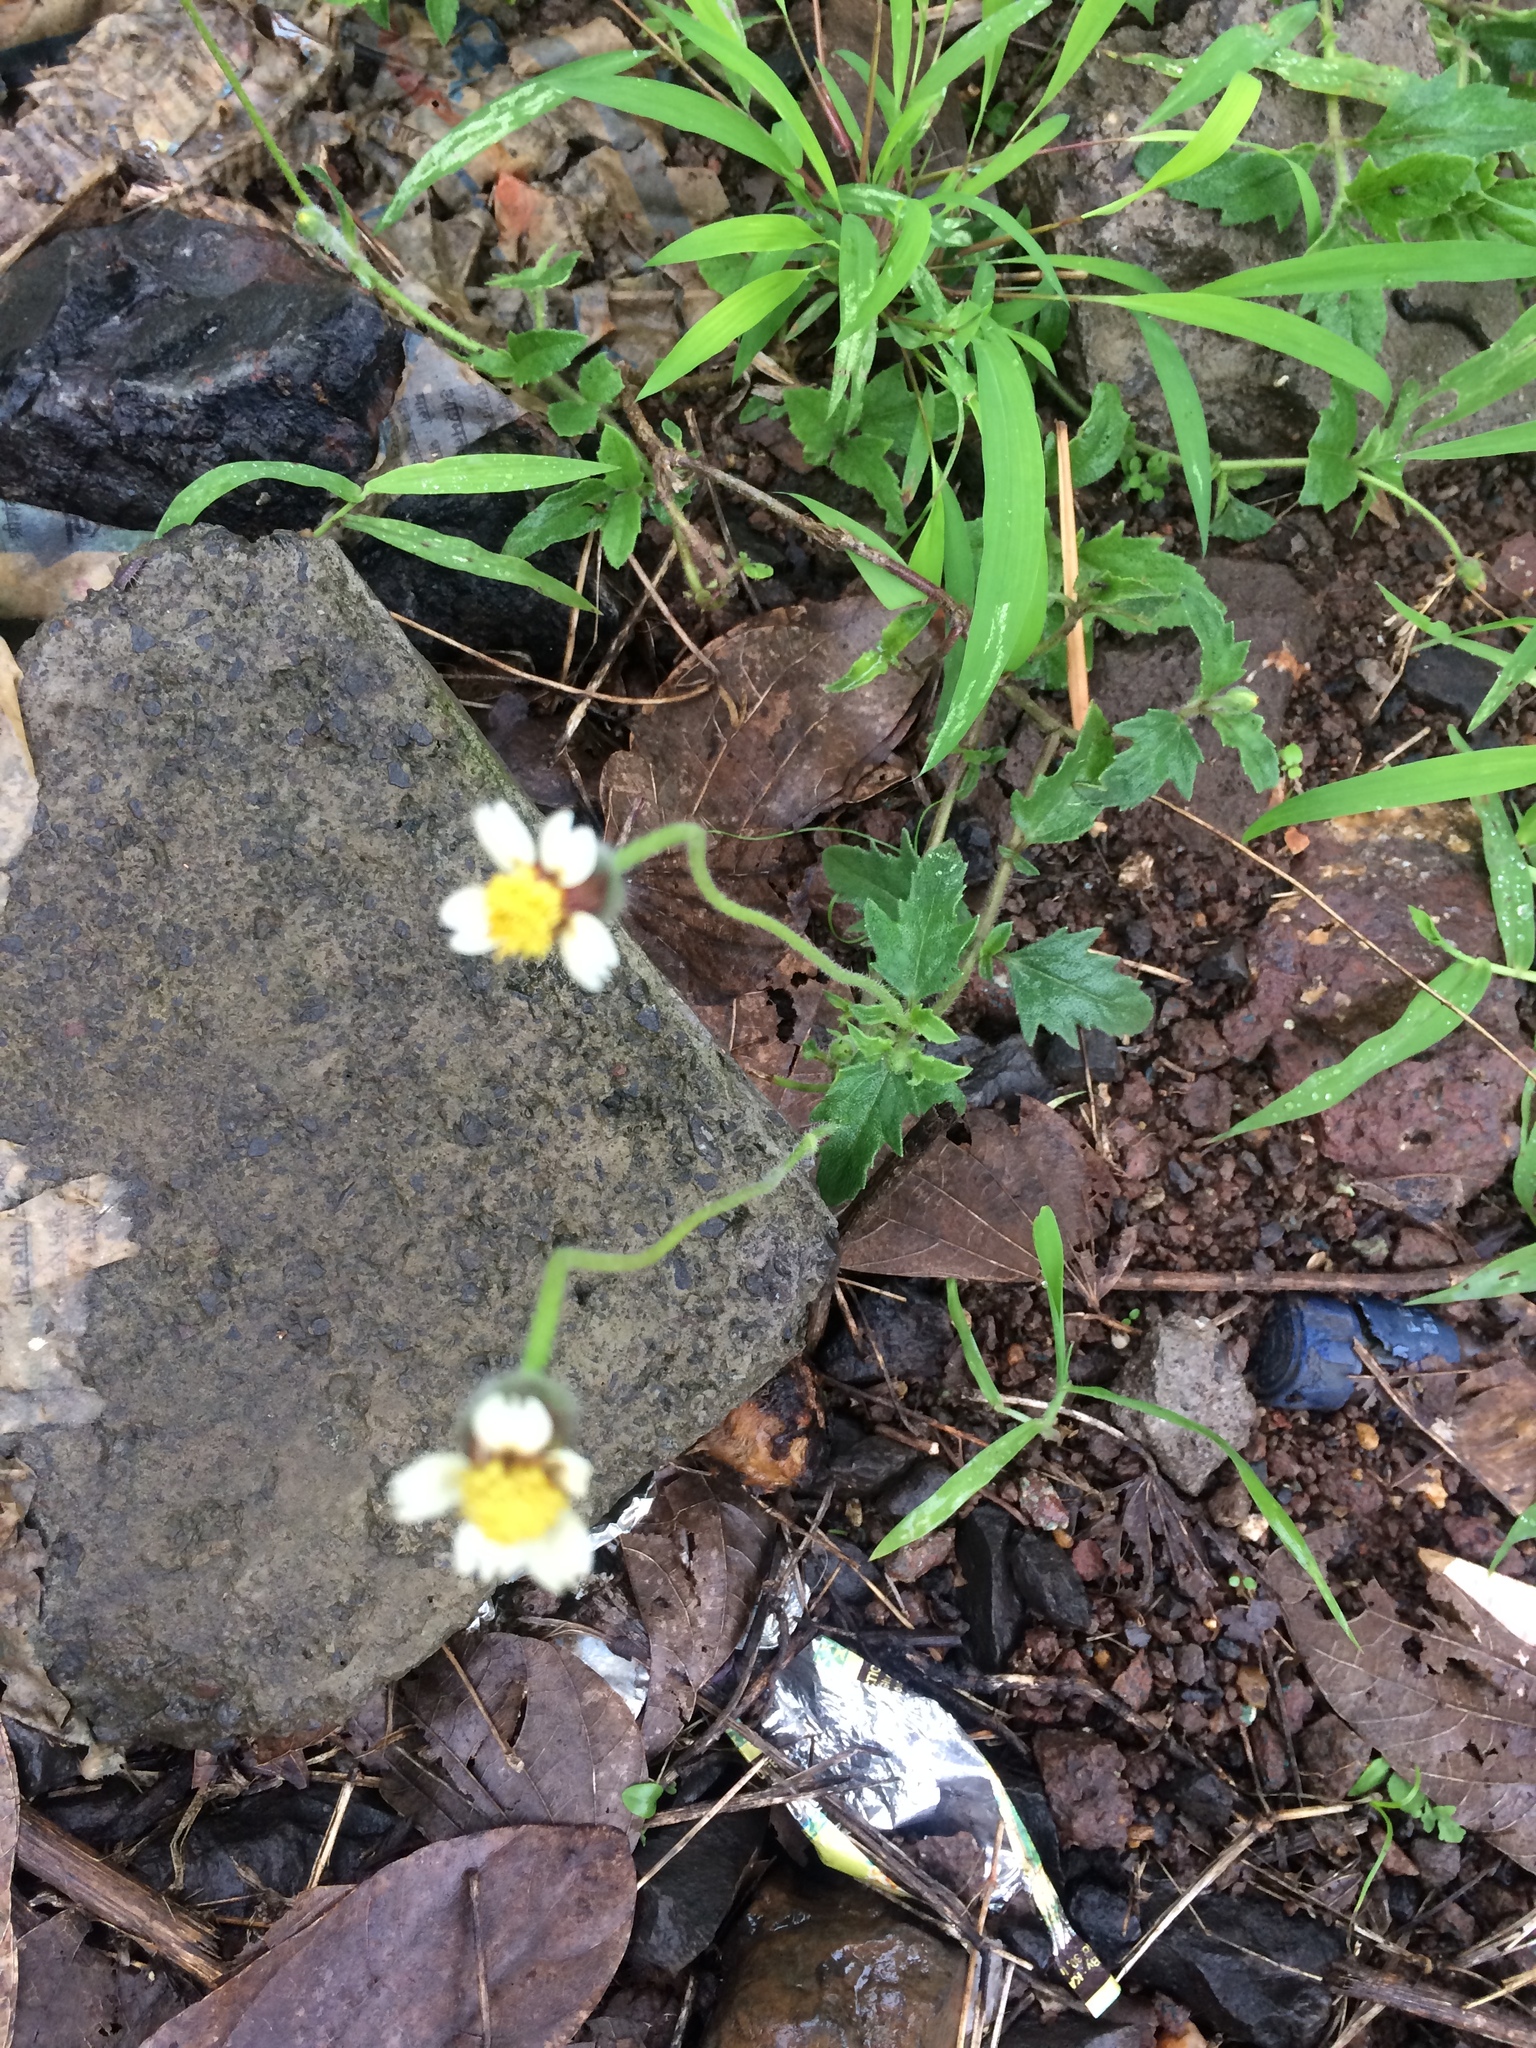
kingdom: Plantae
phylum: Tracheophyta
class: Magnoliopsida
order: Asterales
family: Asteraceae
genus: Tridax
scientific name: Tridax procumbens
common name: Coatbuttons
